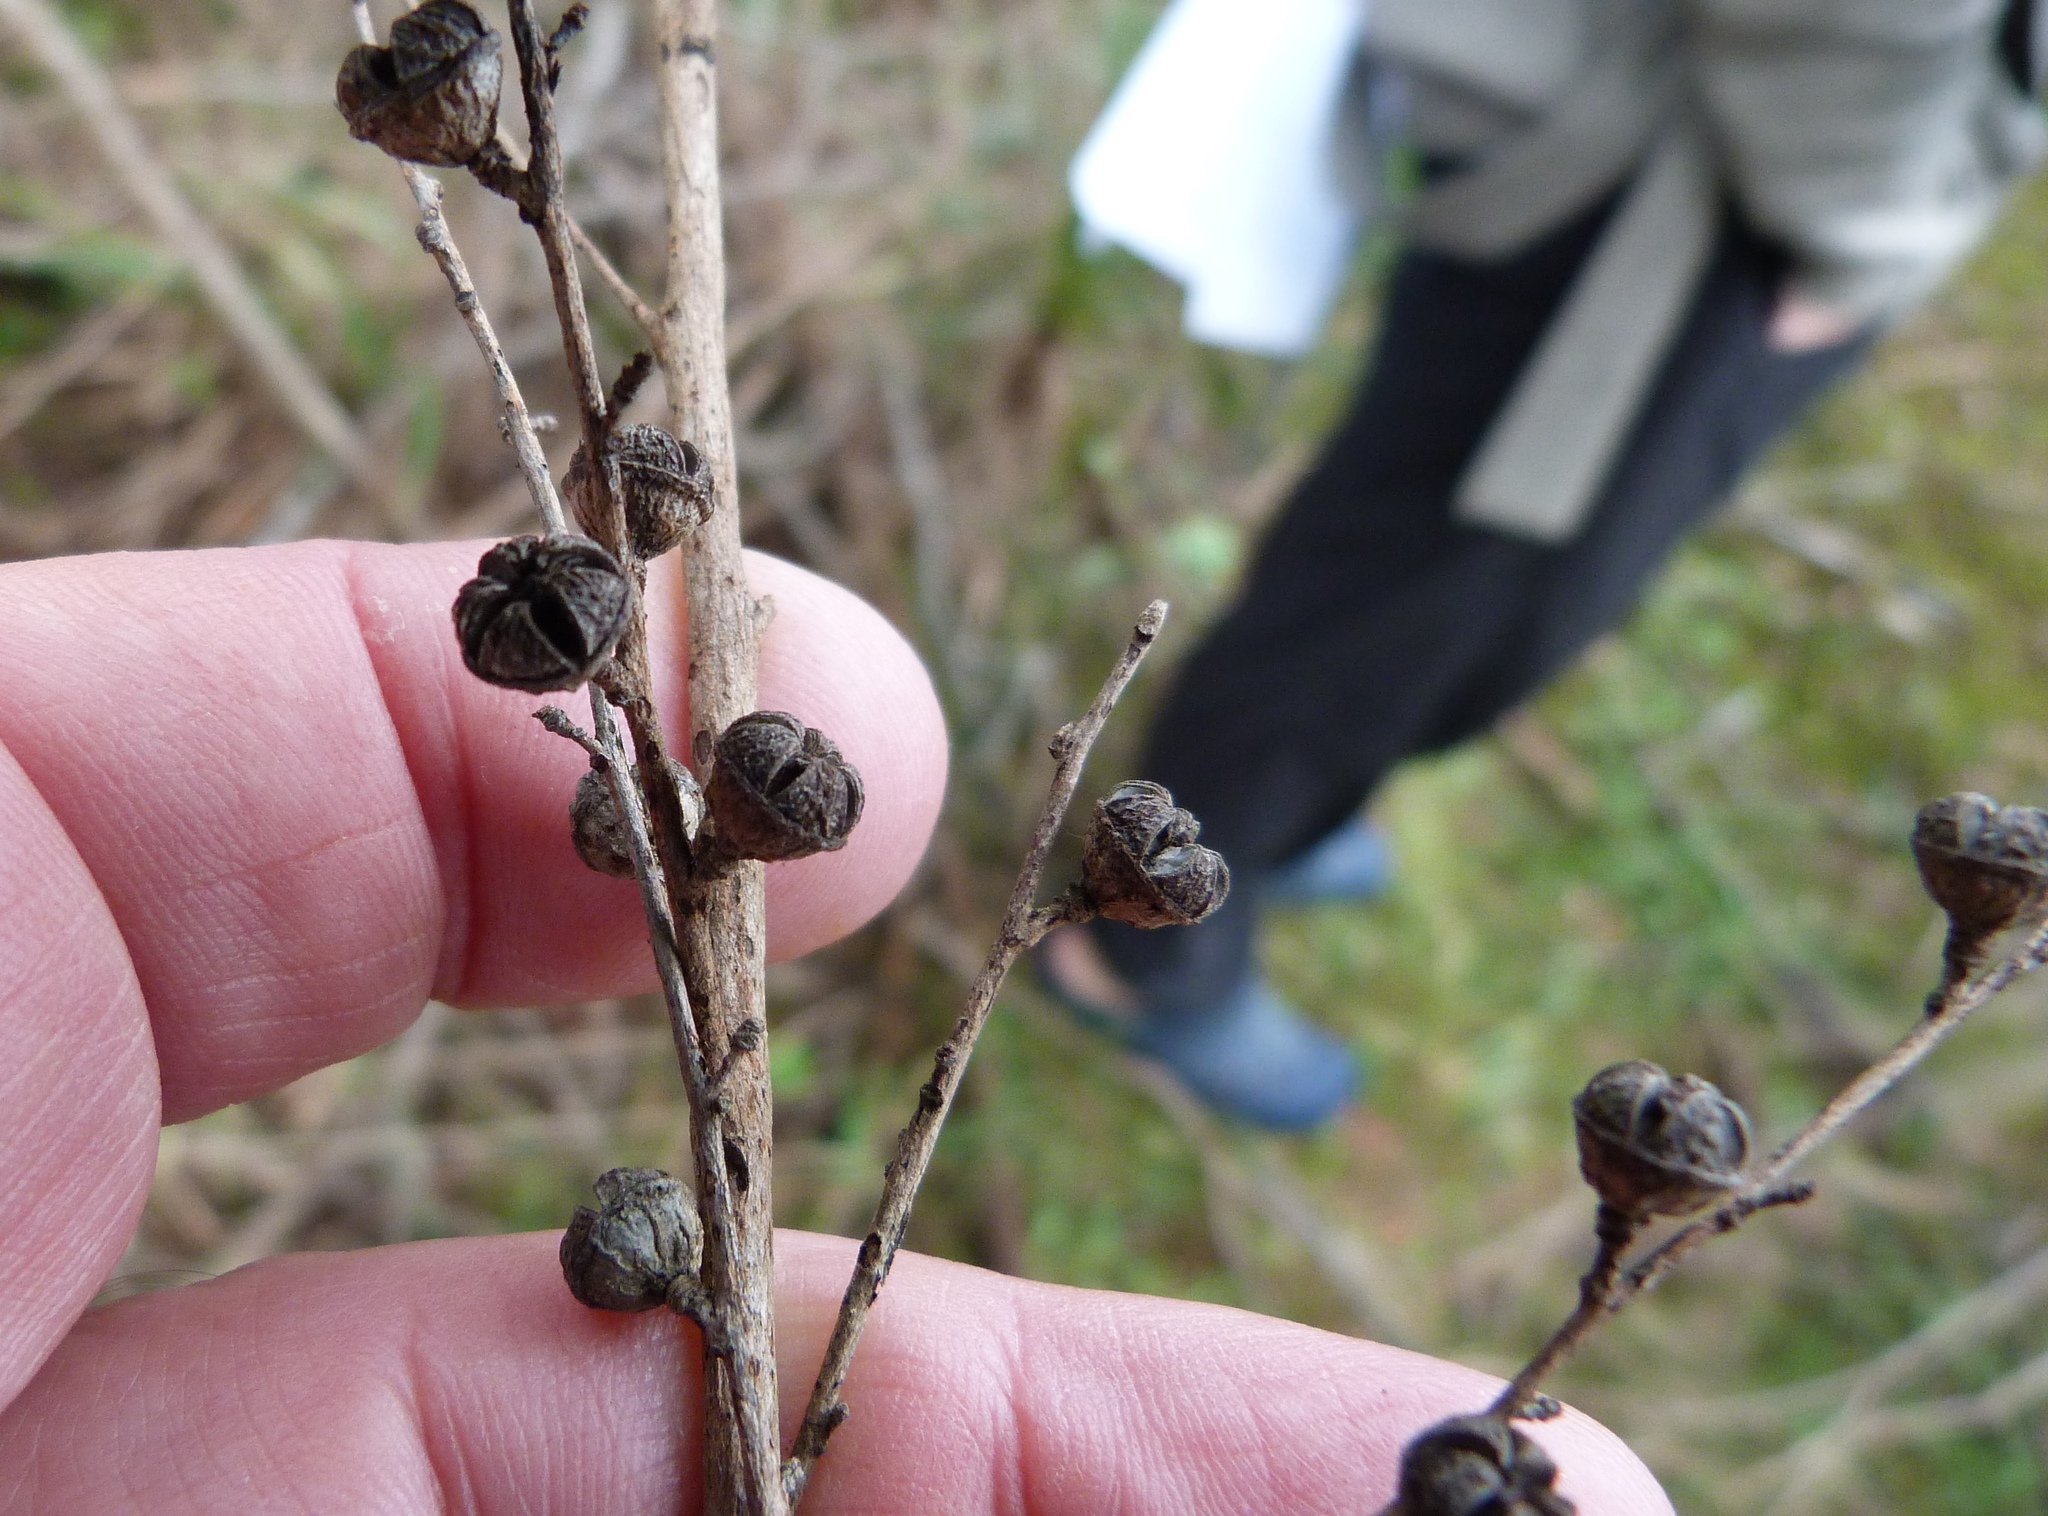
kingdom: Plantae
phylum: Tracheophyta
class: Magnoliopsida
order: Myrtales
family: Myrtaceae
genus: Leptospermum
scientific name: Leptospermum scoparium
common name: Broom tea-tree
